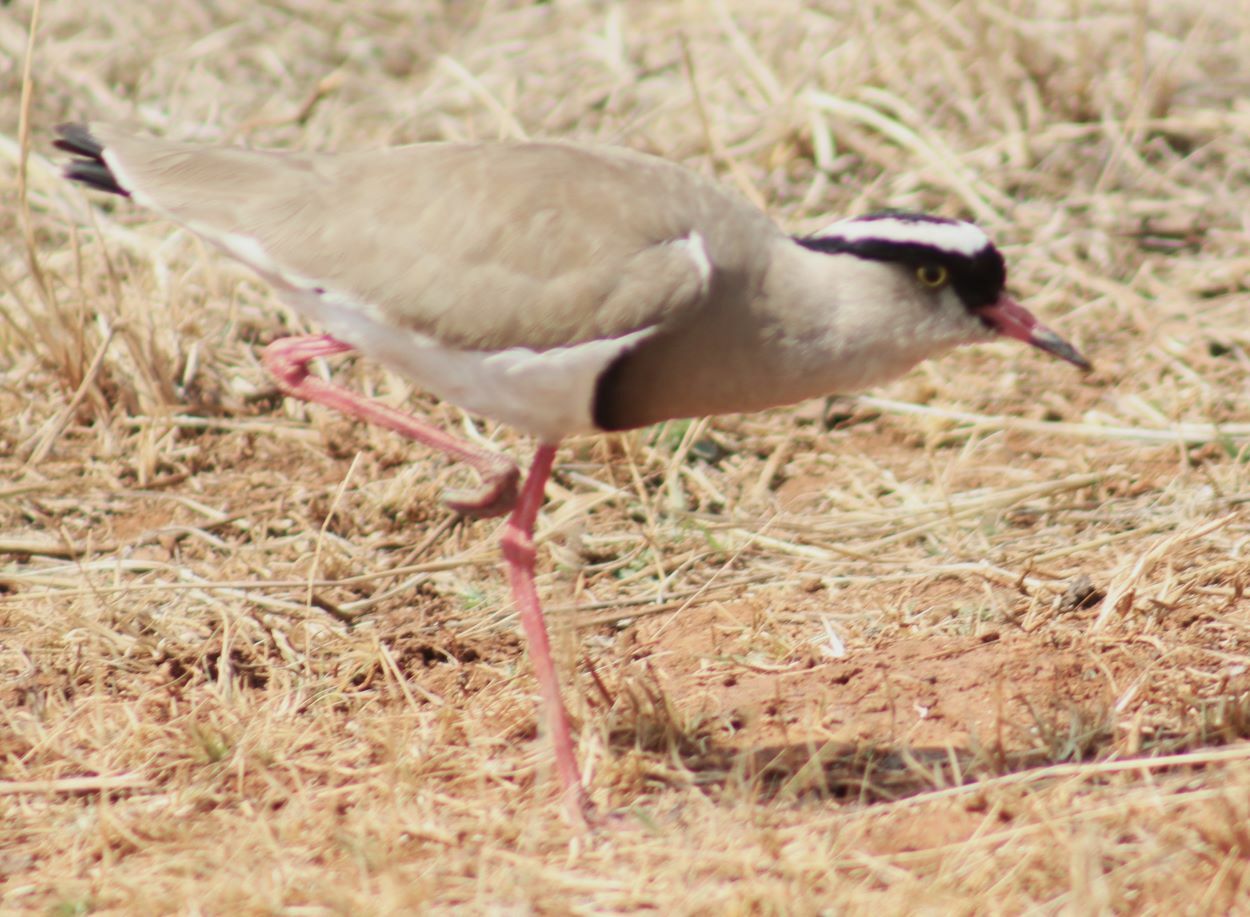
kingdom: Animalia
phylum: Chordata
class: Aves
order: Charadriiformes
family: Charadriidae
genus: Vanellus
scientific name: Vanellus coronatus
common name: Crowned lapwing
